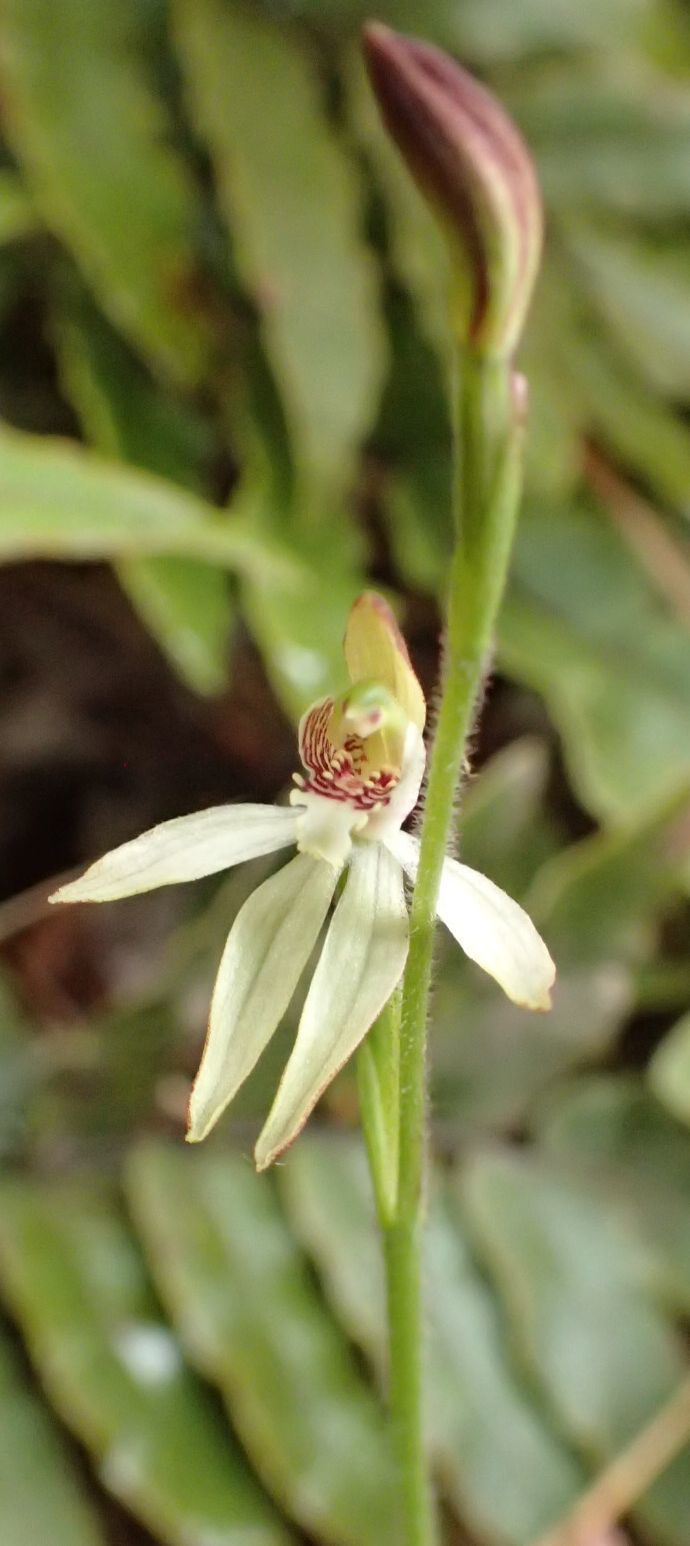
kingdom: Plantae
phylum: Tracheophyta
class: Liliopsida
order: Asparagales
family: Orchidaceae
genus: Caladenia
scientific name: Caladenia chlorostyla
